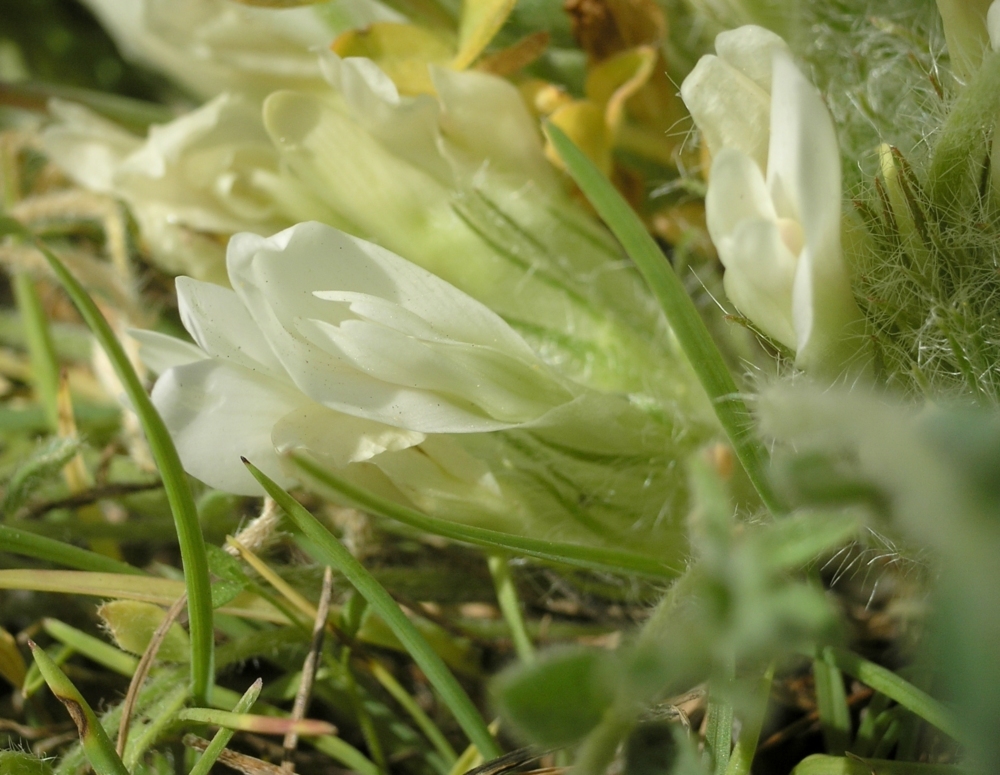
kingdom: Plantae
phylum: Tracheophyta
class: Magnoliopsida
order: Fabales
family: Fabaceae
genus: Astragalus
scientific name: Astragalus dolichophyllus
